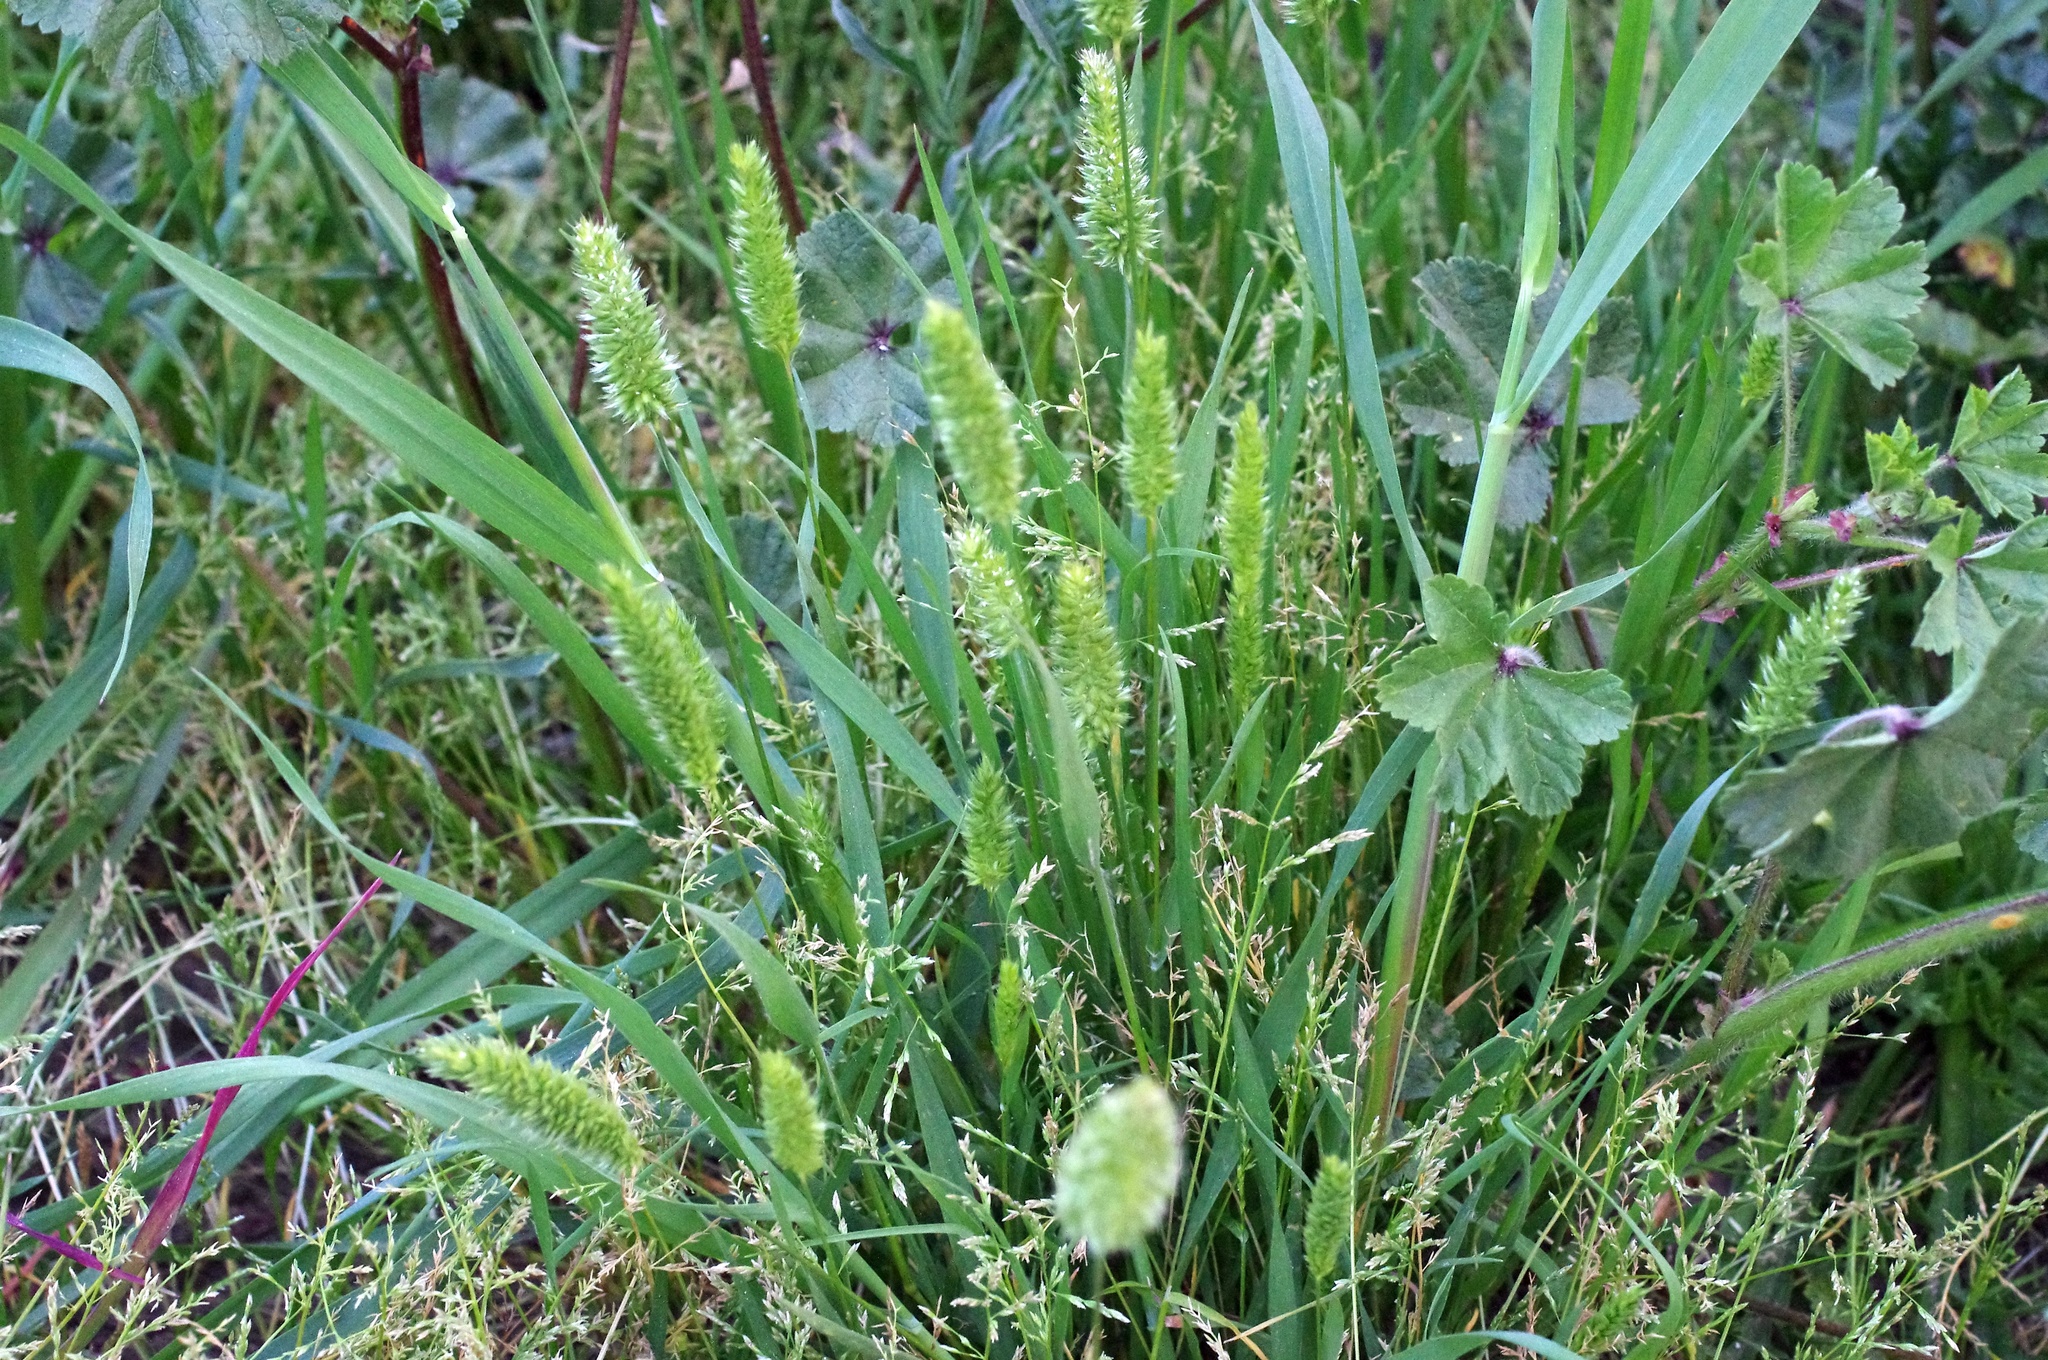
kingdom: Plantae
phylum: Tracheophyta
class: Liliopsida
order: Poales
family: Poaceae
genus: Rostraria
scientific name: Rostraria cristata
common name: Mediterranean hair-grass
